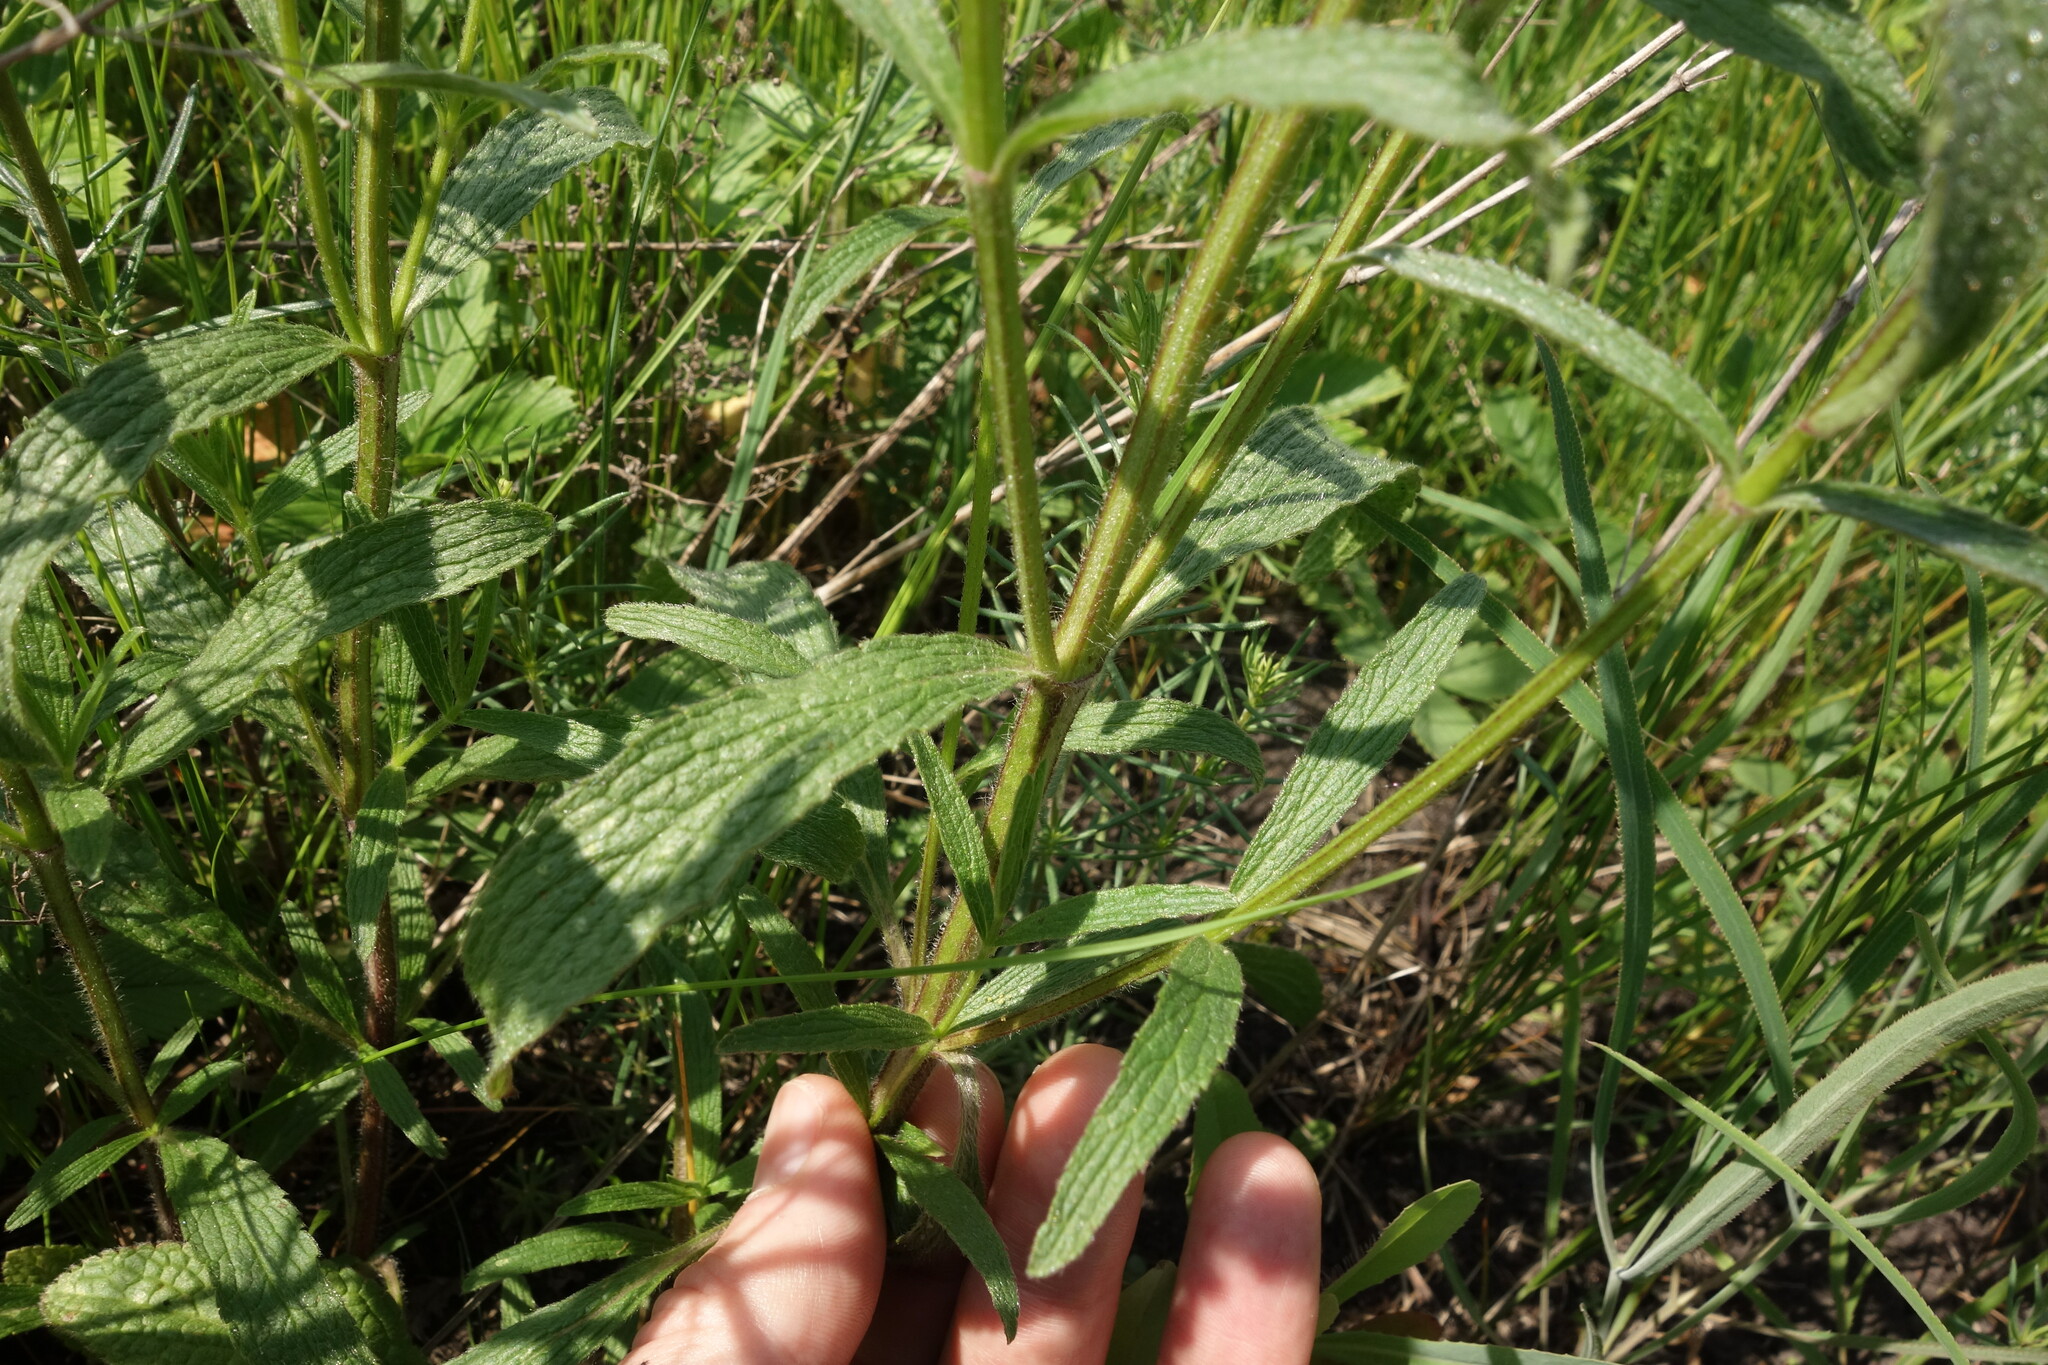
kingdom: Plantae
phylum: Tracheophyta
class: Magnoliopsida
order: Lamiales
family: Lamiaceae
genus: Stachys
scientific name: Stachys recta
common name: Perennial yellow-woundwort
